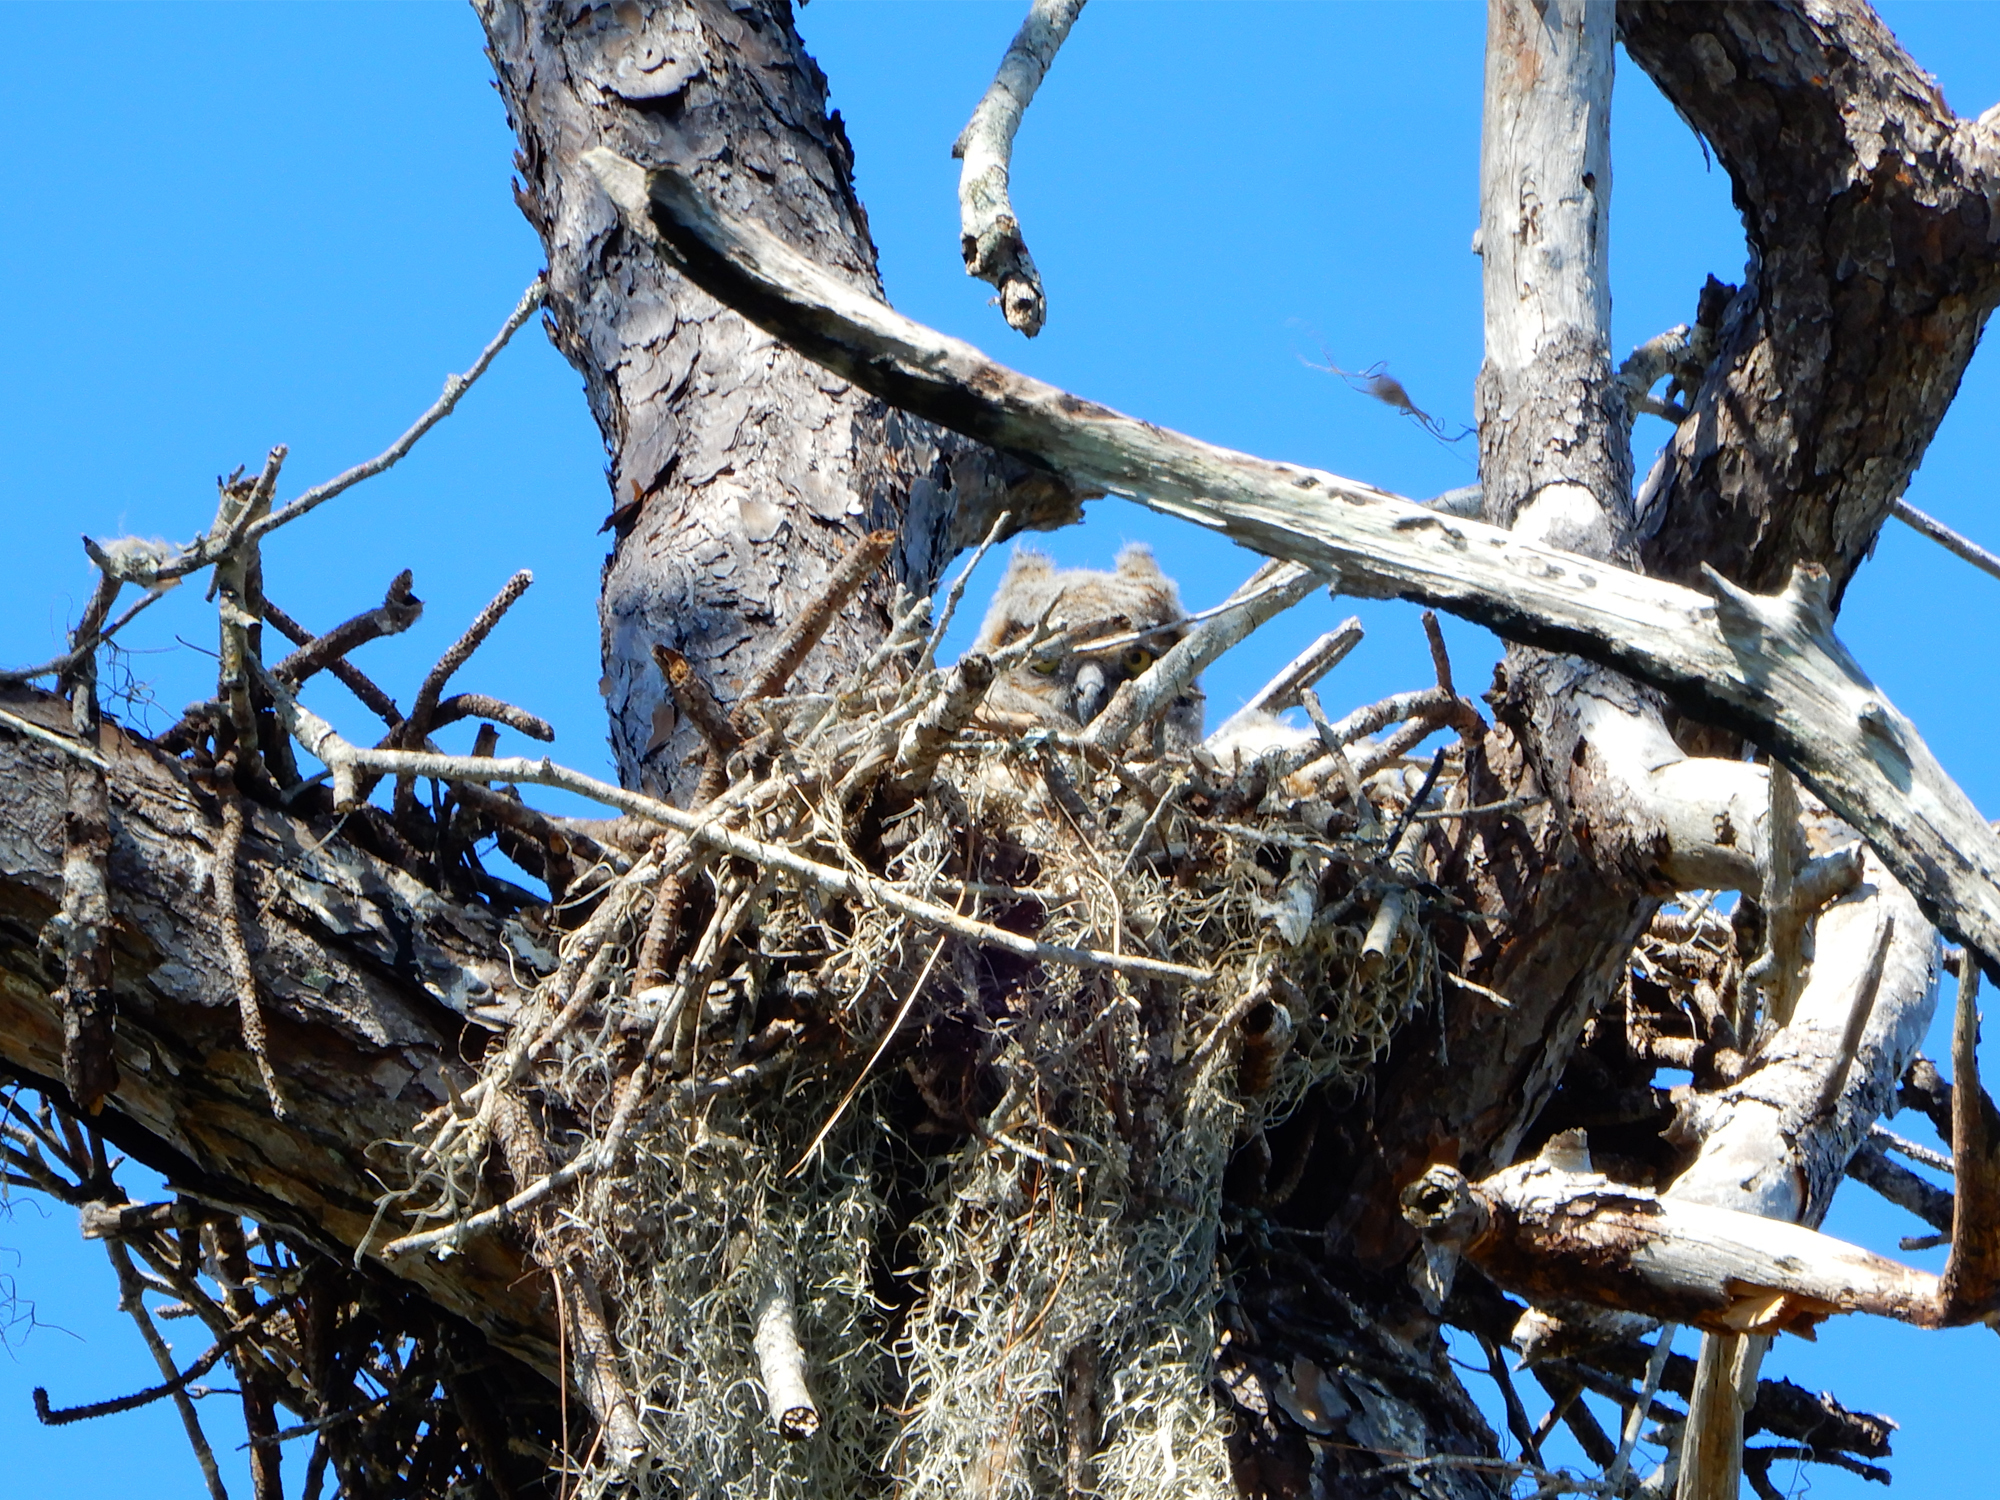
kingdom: Animalia
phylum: Chordata
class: Aves
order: Strigiformes
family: Strigidae
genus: Bubo
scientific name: Bubo virginianus
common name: Great horned owl
